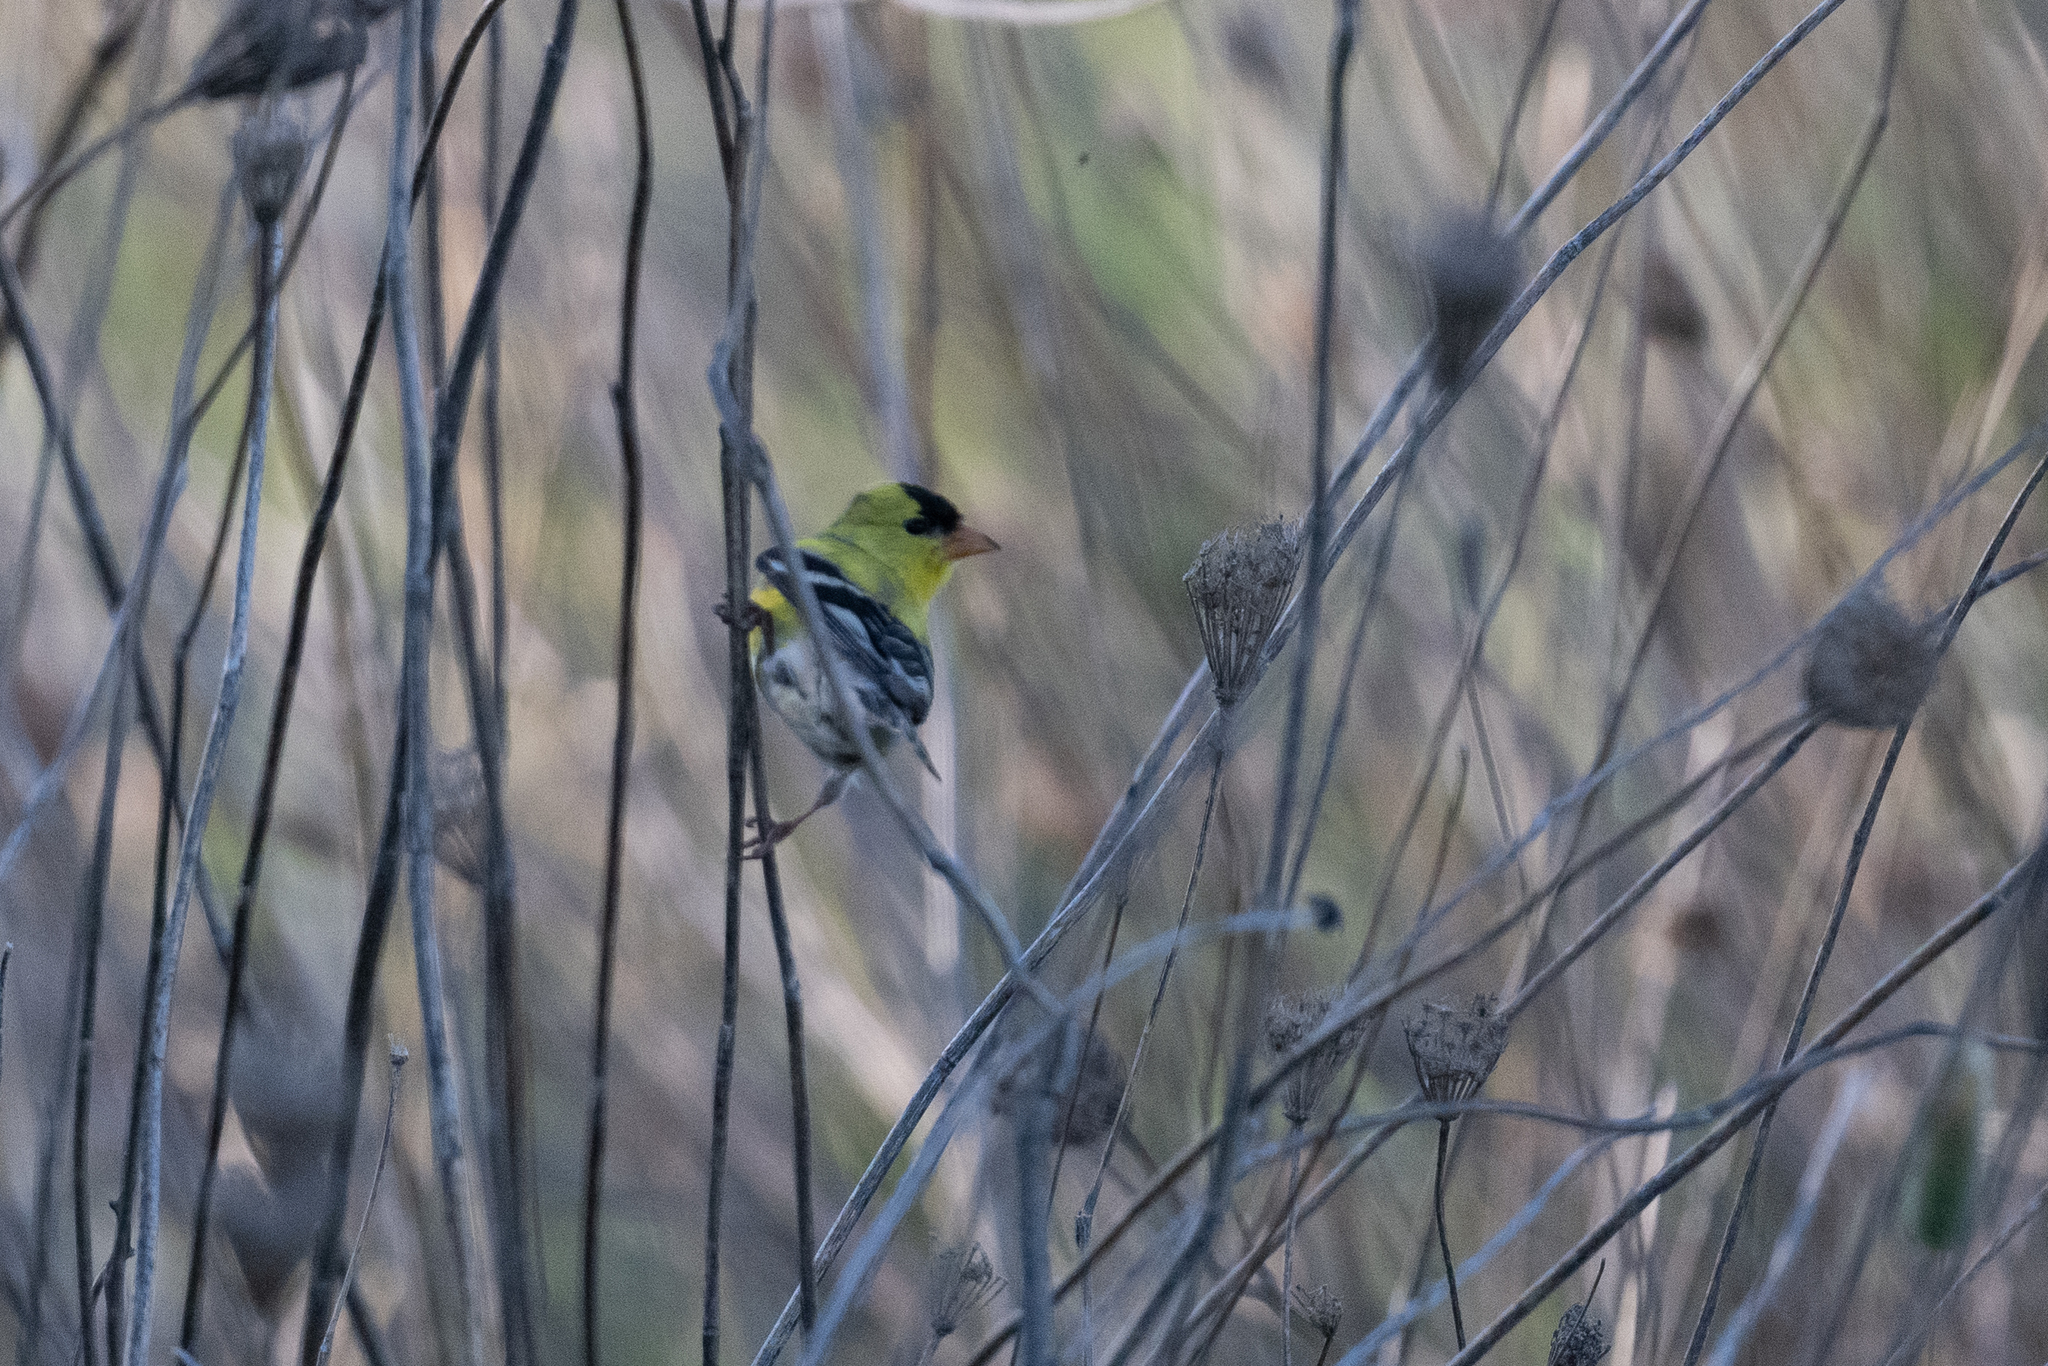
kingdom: Animalia
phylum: Chordata
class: Aves
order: Passeriformes
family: Fringillidae
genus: Spinus
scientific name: Spinus tristis
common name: American goldfinch
